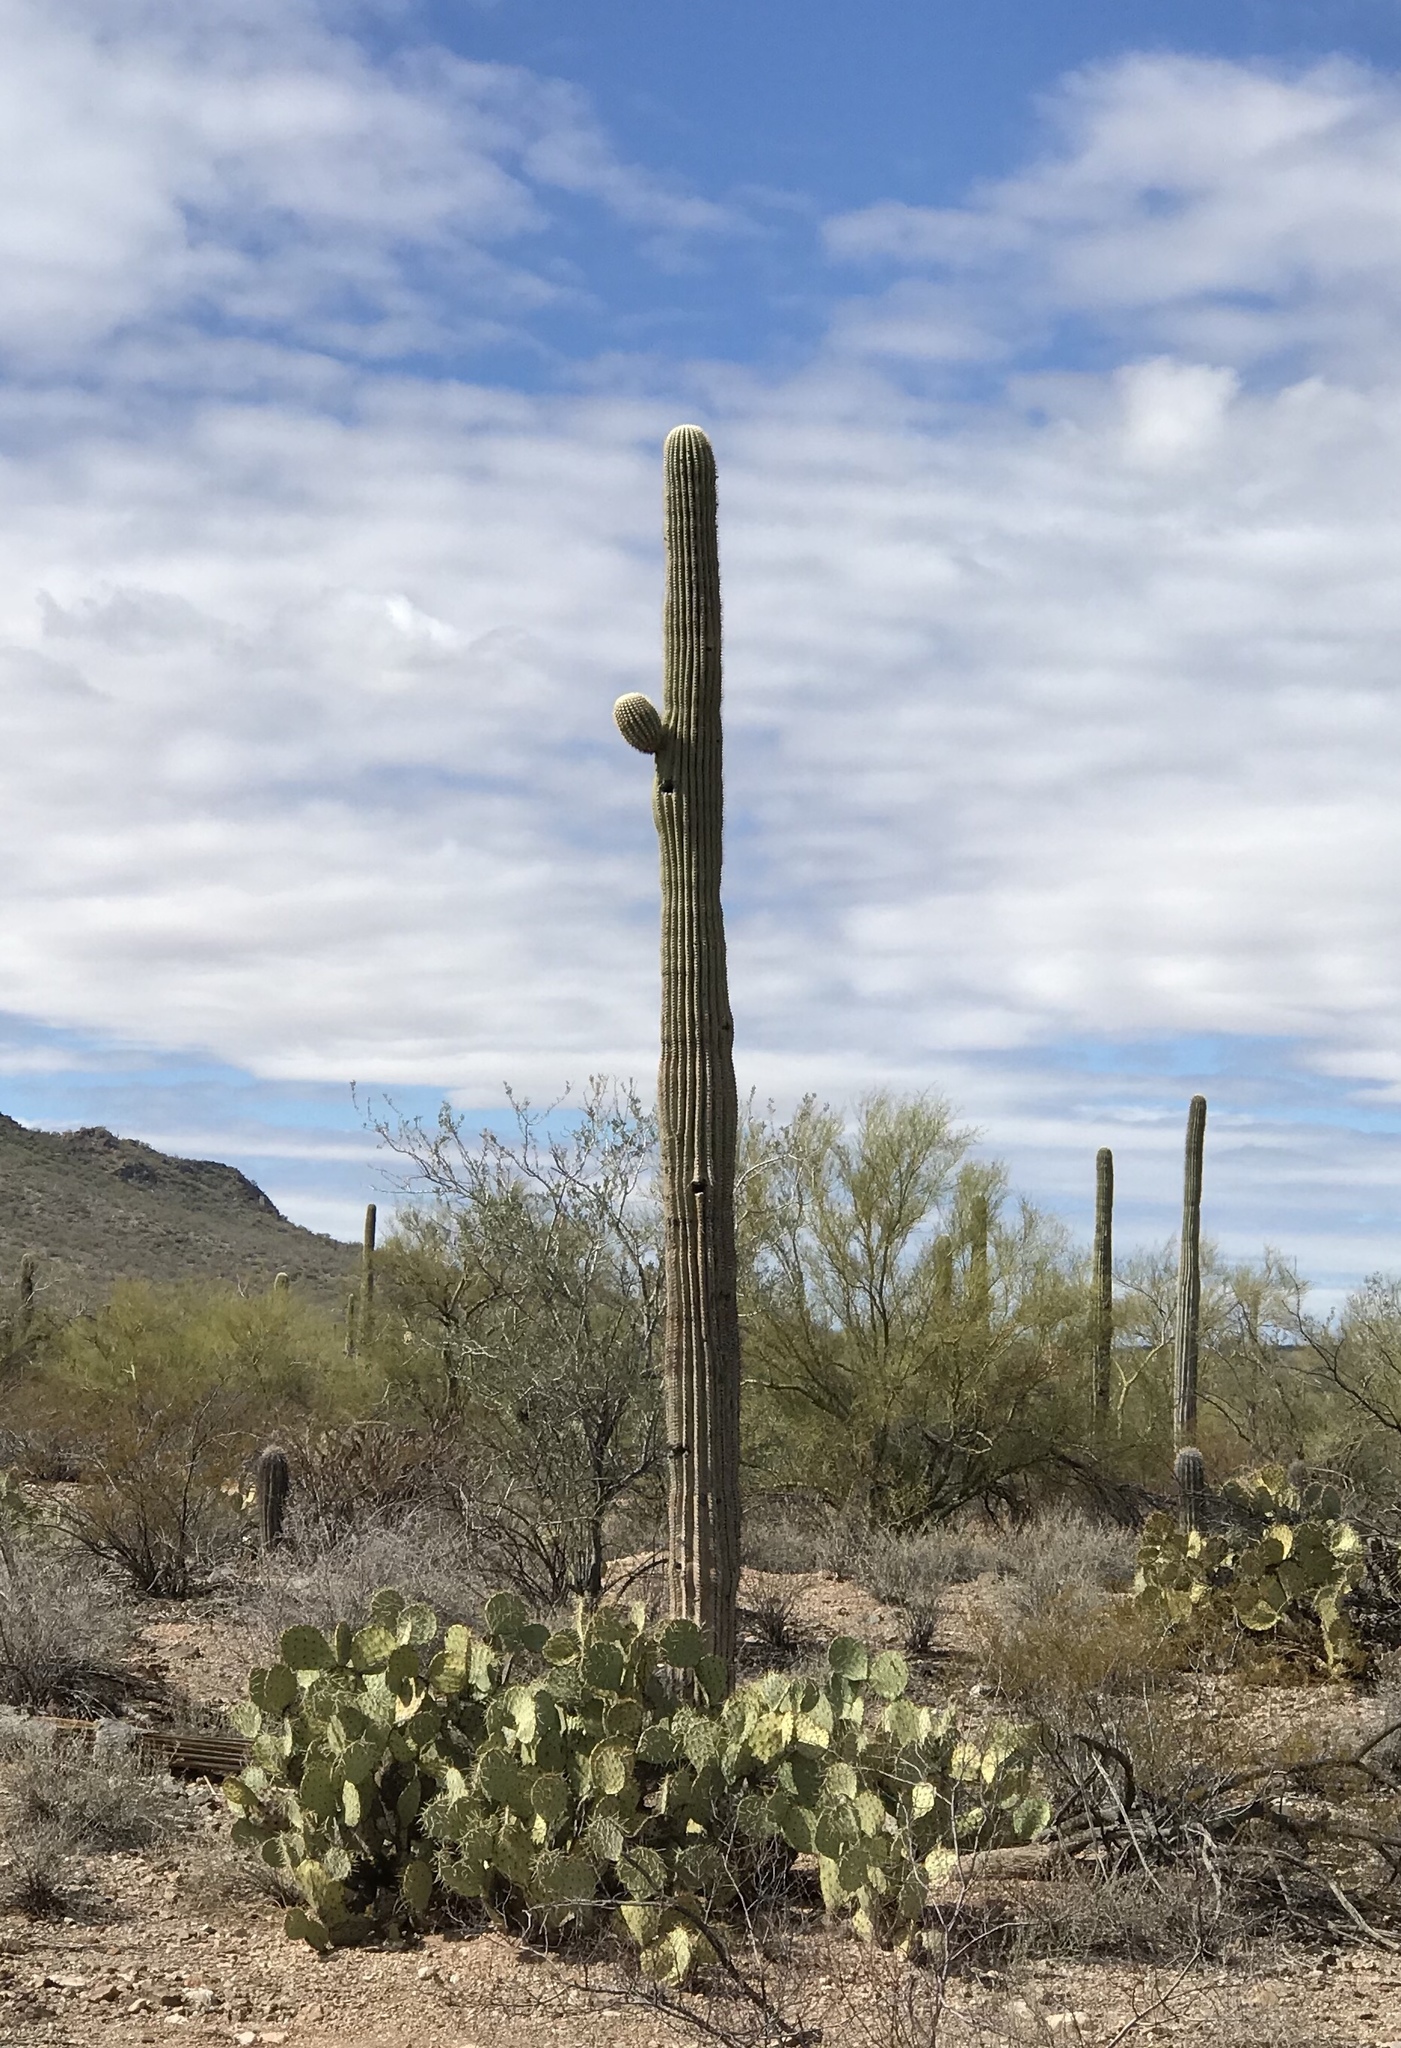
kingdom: Plantae
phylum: Tracheophyta
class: Magnoliopsida
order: Caryophyllales
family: Cactaceae
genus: Carnegiea
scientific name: Carnegiea gigantea
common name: Saguaro
